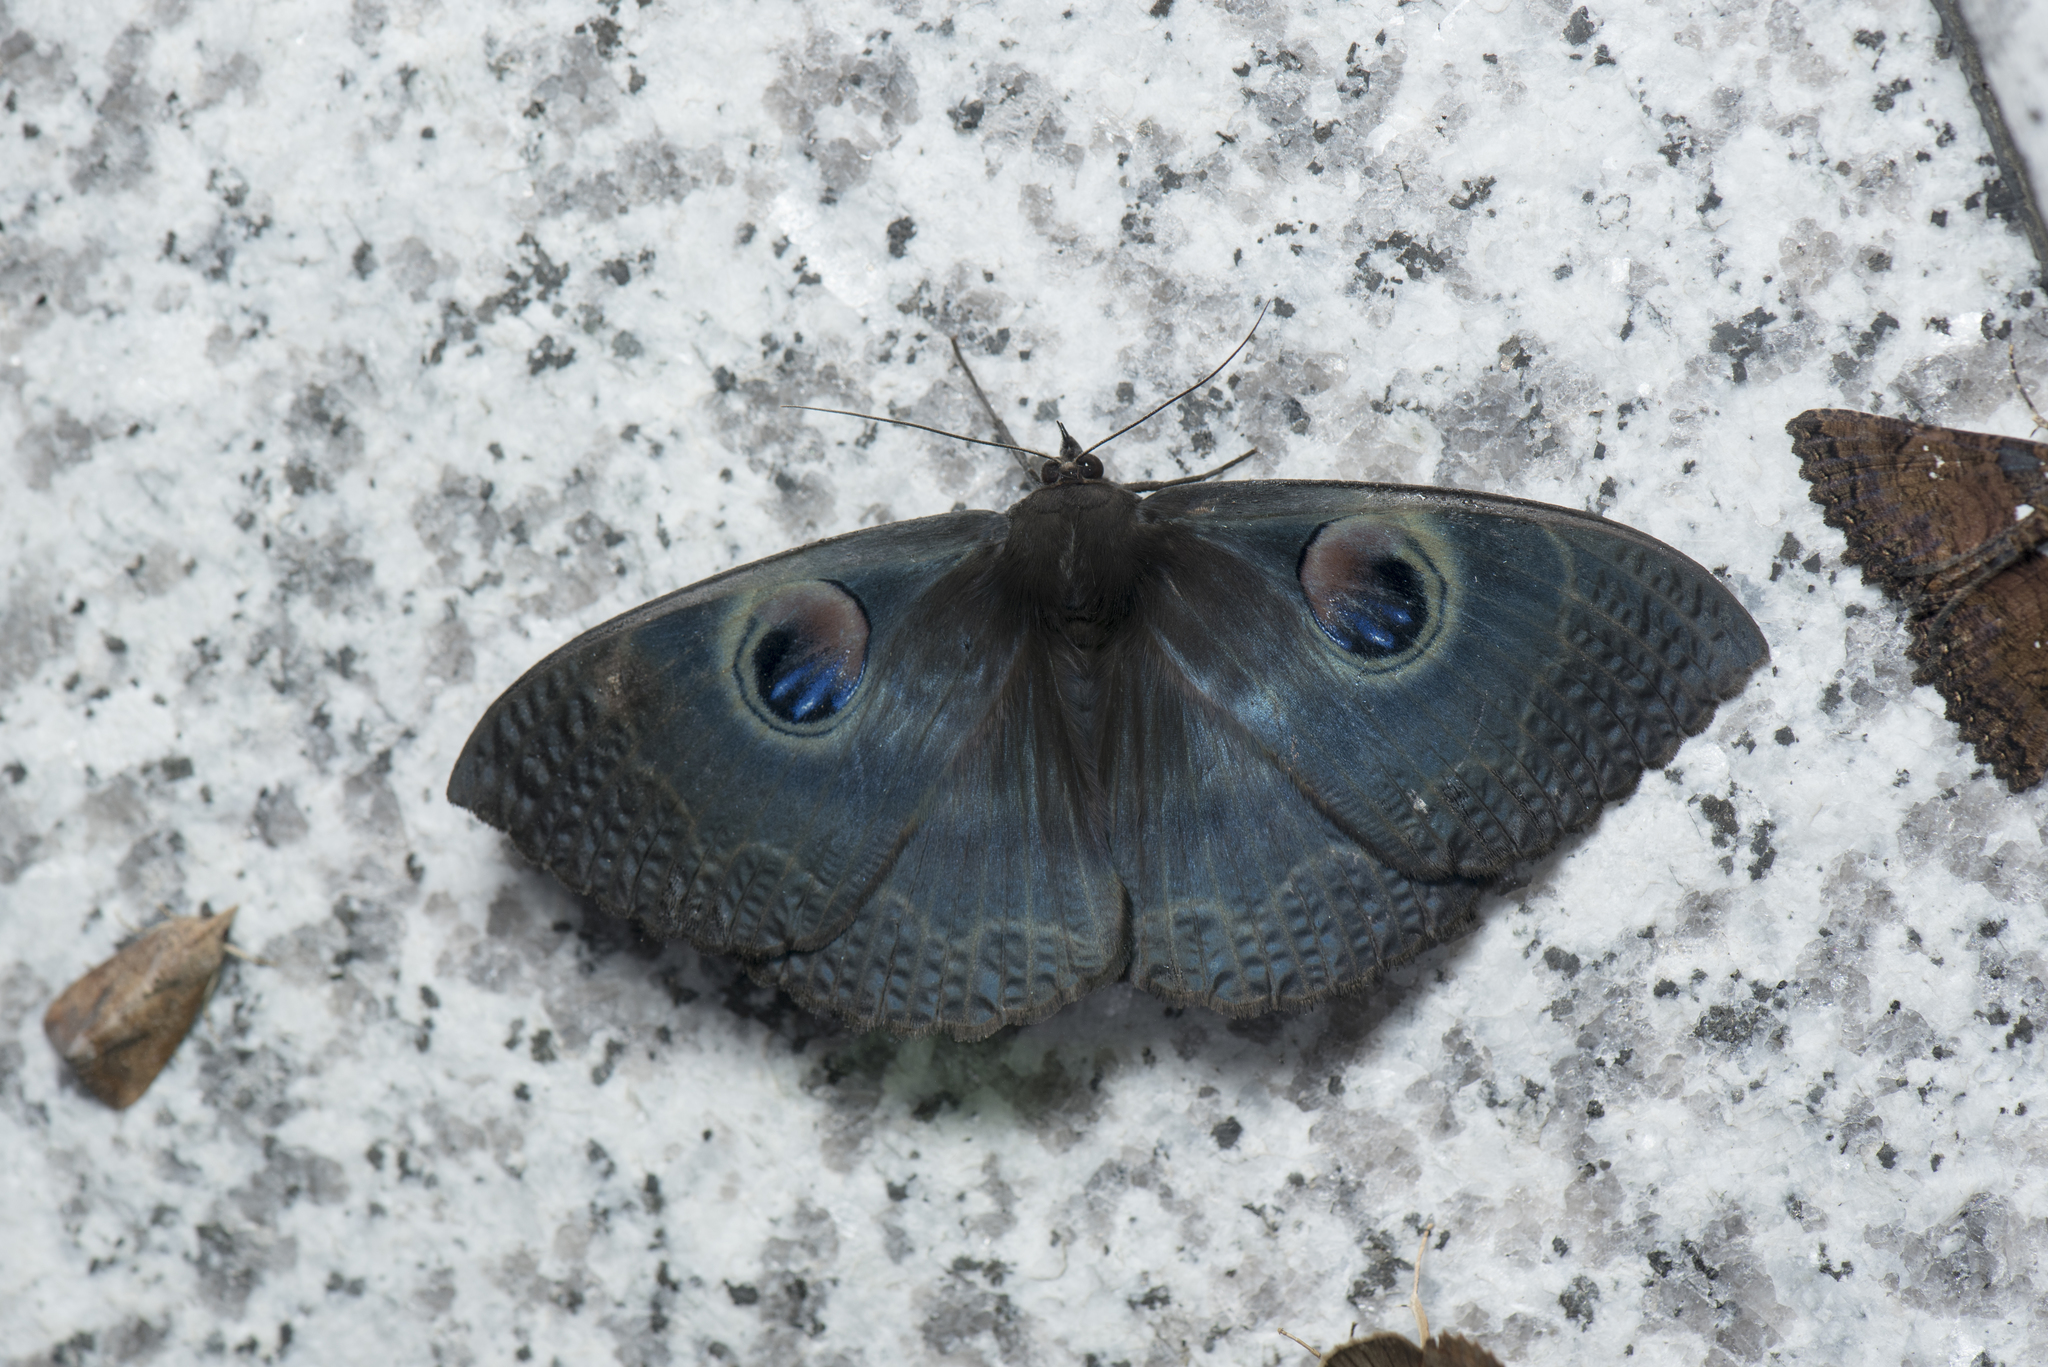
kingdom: Animalia
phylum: Arthropoda
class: Insecta
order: Lepidoptera
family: Erebidae
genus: Erebus
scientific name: Erebus albicinctus
